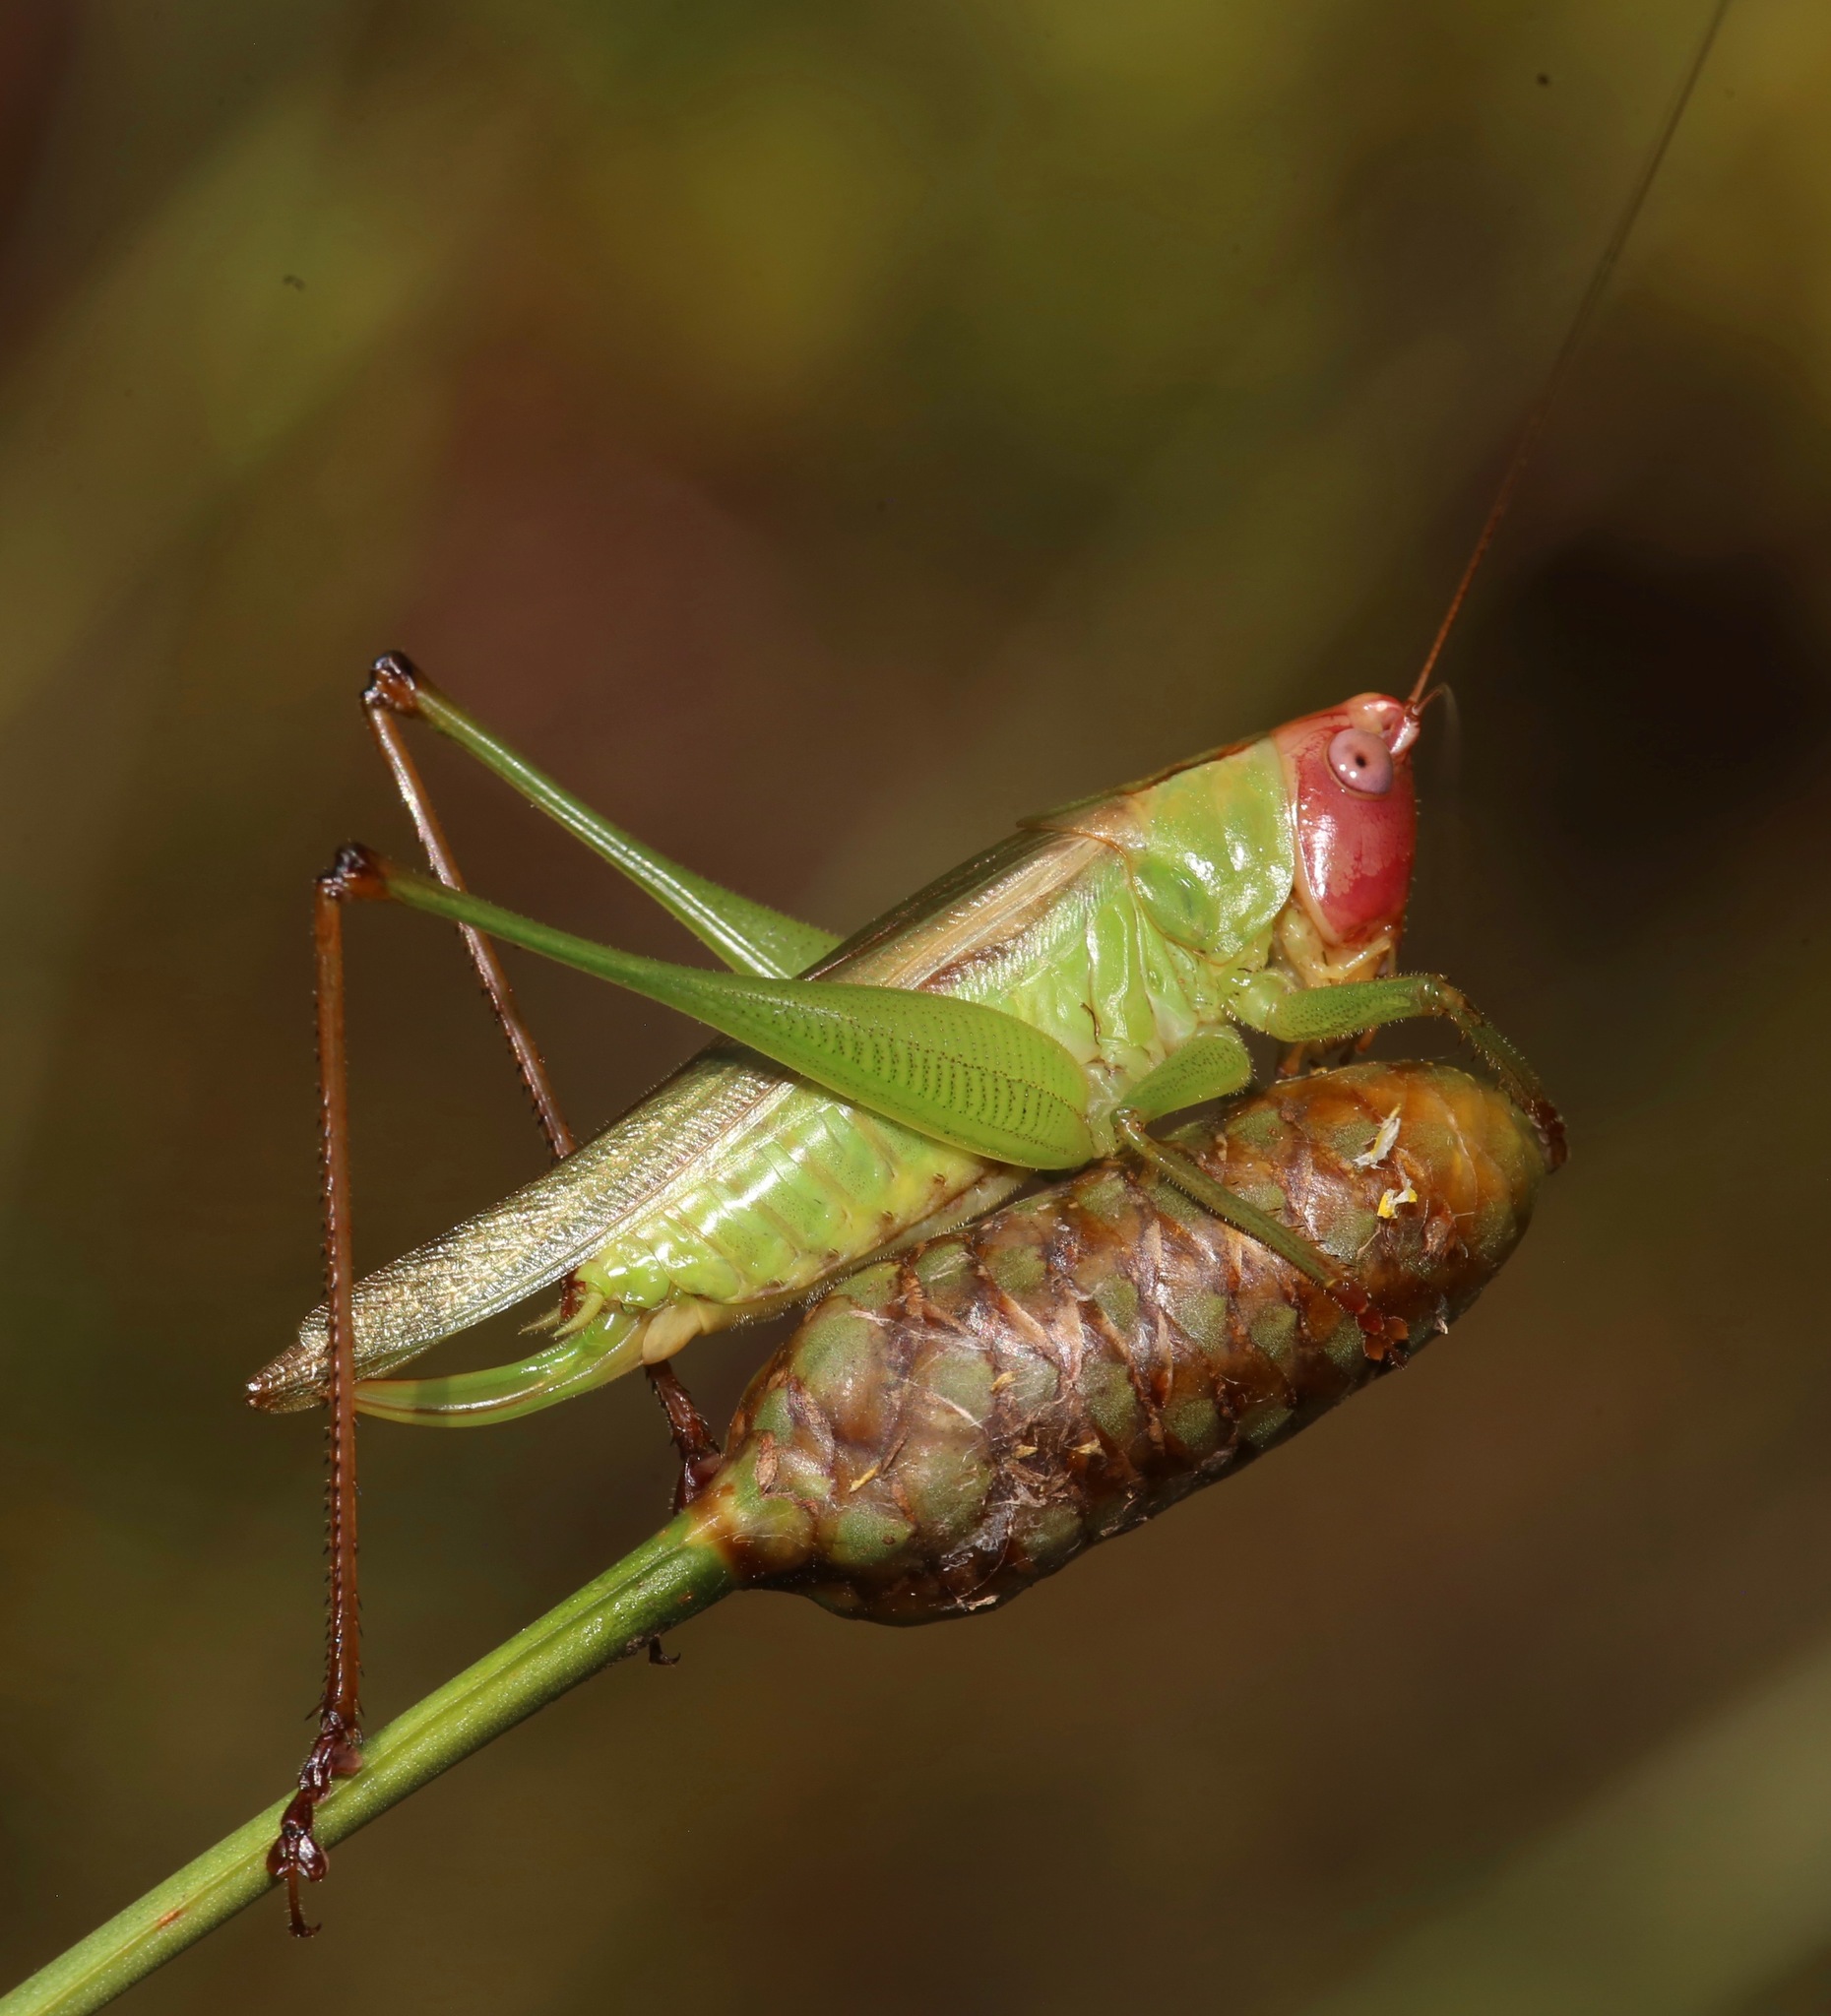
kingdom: Animalia
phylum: Arthropoda
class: Insecta
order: Orthoptera
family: Tettigoniidae
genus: Orchelimum
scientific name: Orchelimum erythrocephalum
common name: Red-headed meadow katydid
